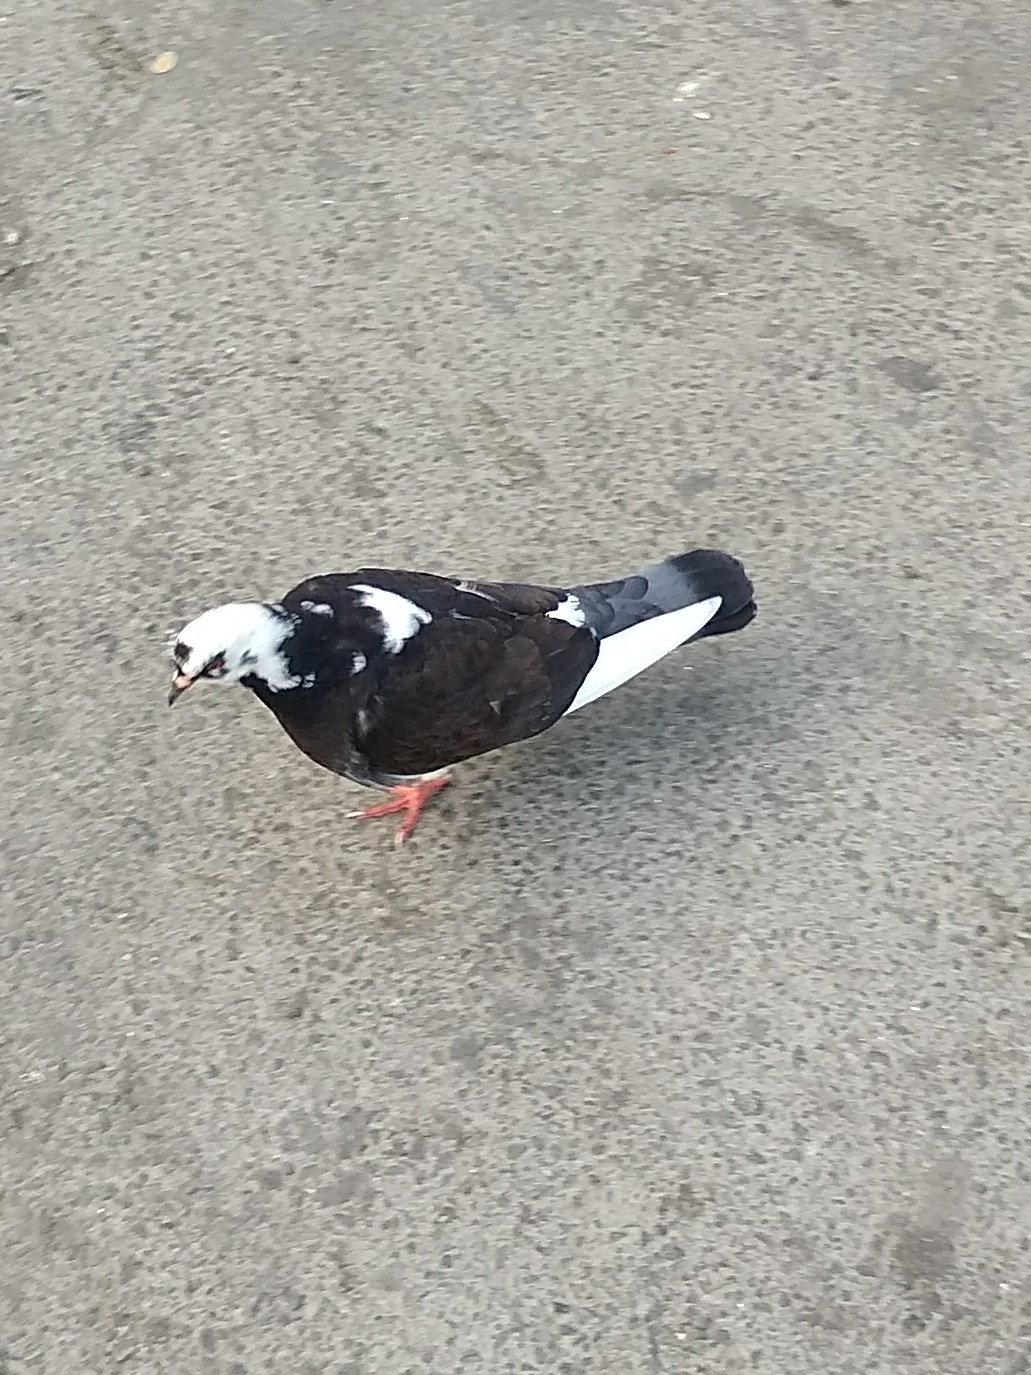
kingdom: Animalia
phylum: Chordata
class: Aves
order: Columbiformes
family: Columbidae
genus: Columba
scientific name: Columba livia
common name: Rock pigeon
